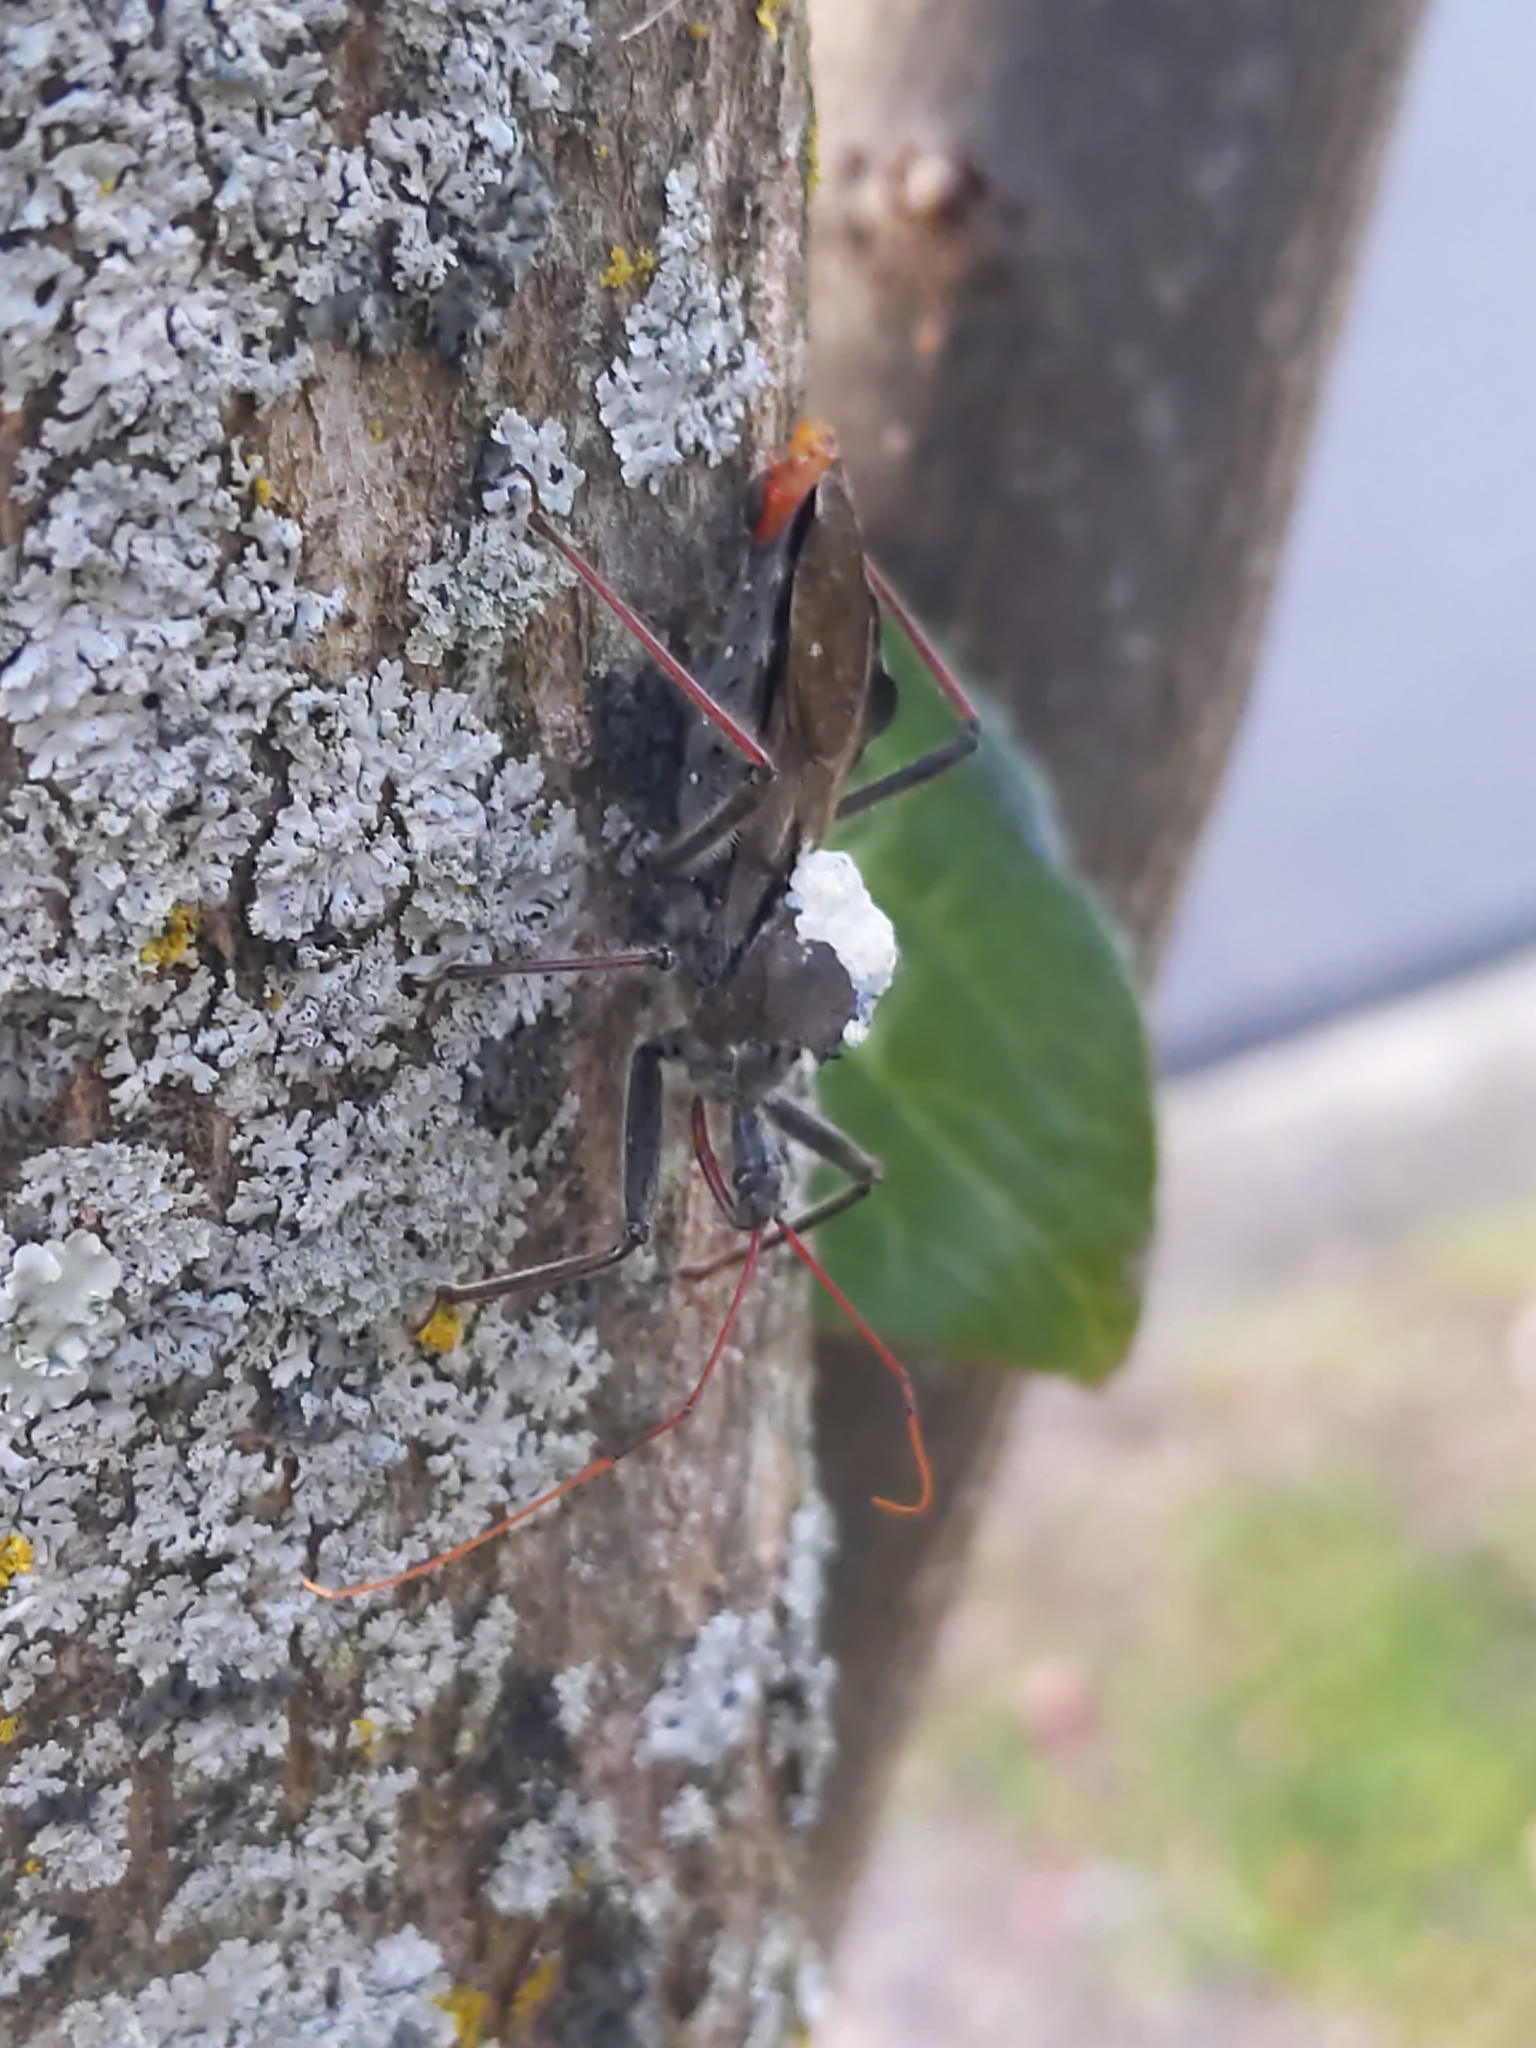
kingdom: Animalia
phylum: Arthropoda
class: Insecta
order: Hemiptera
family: Reduviidae
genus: Arilus
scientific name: Arilus cristatus
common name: North american wheel bug
